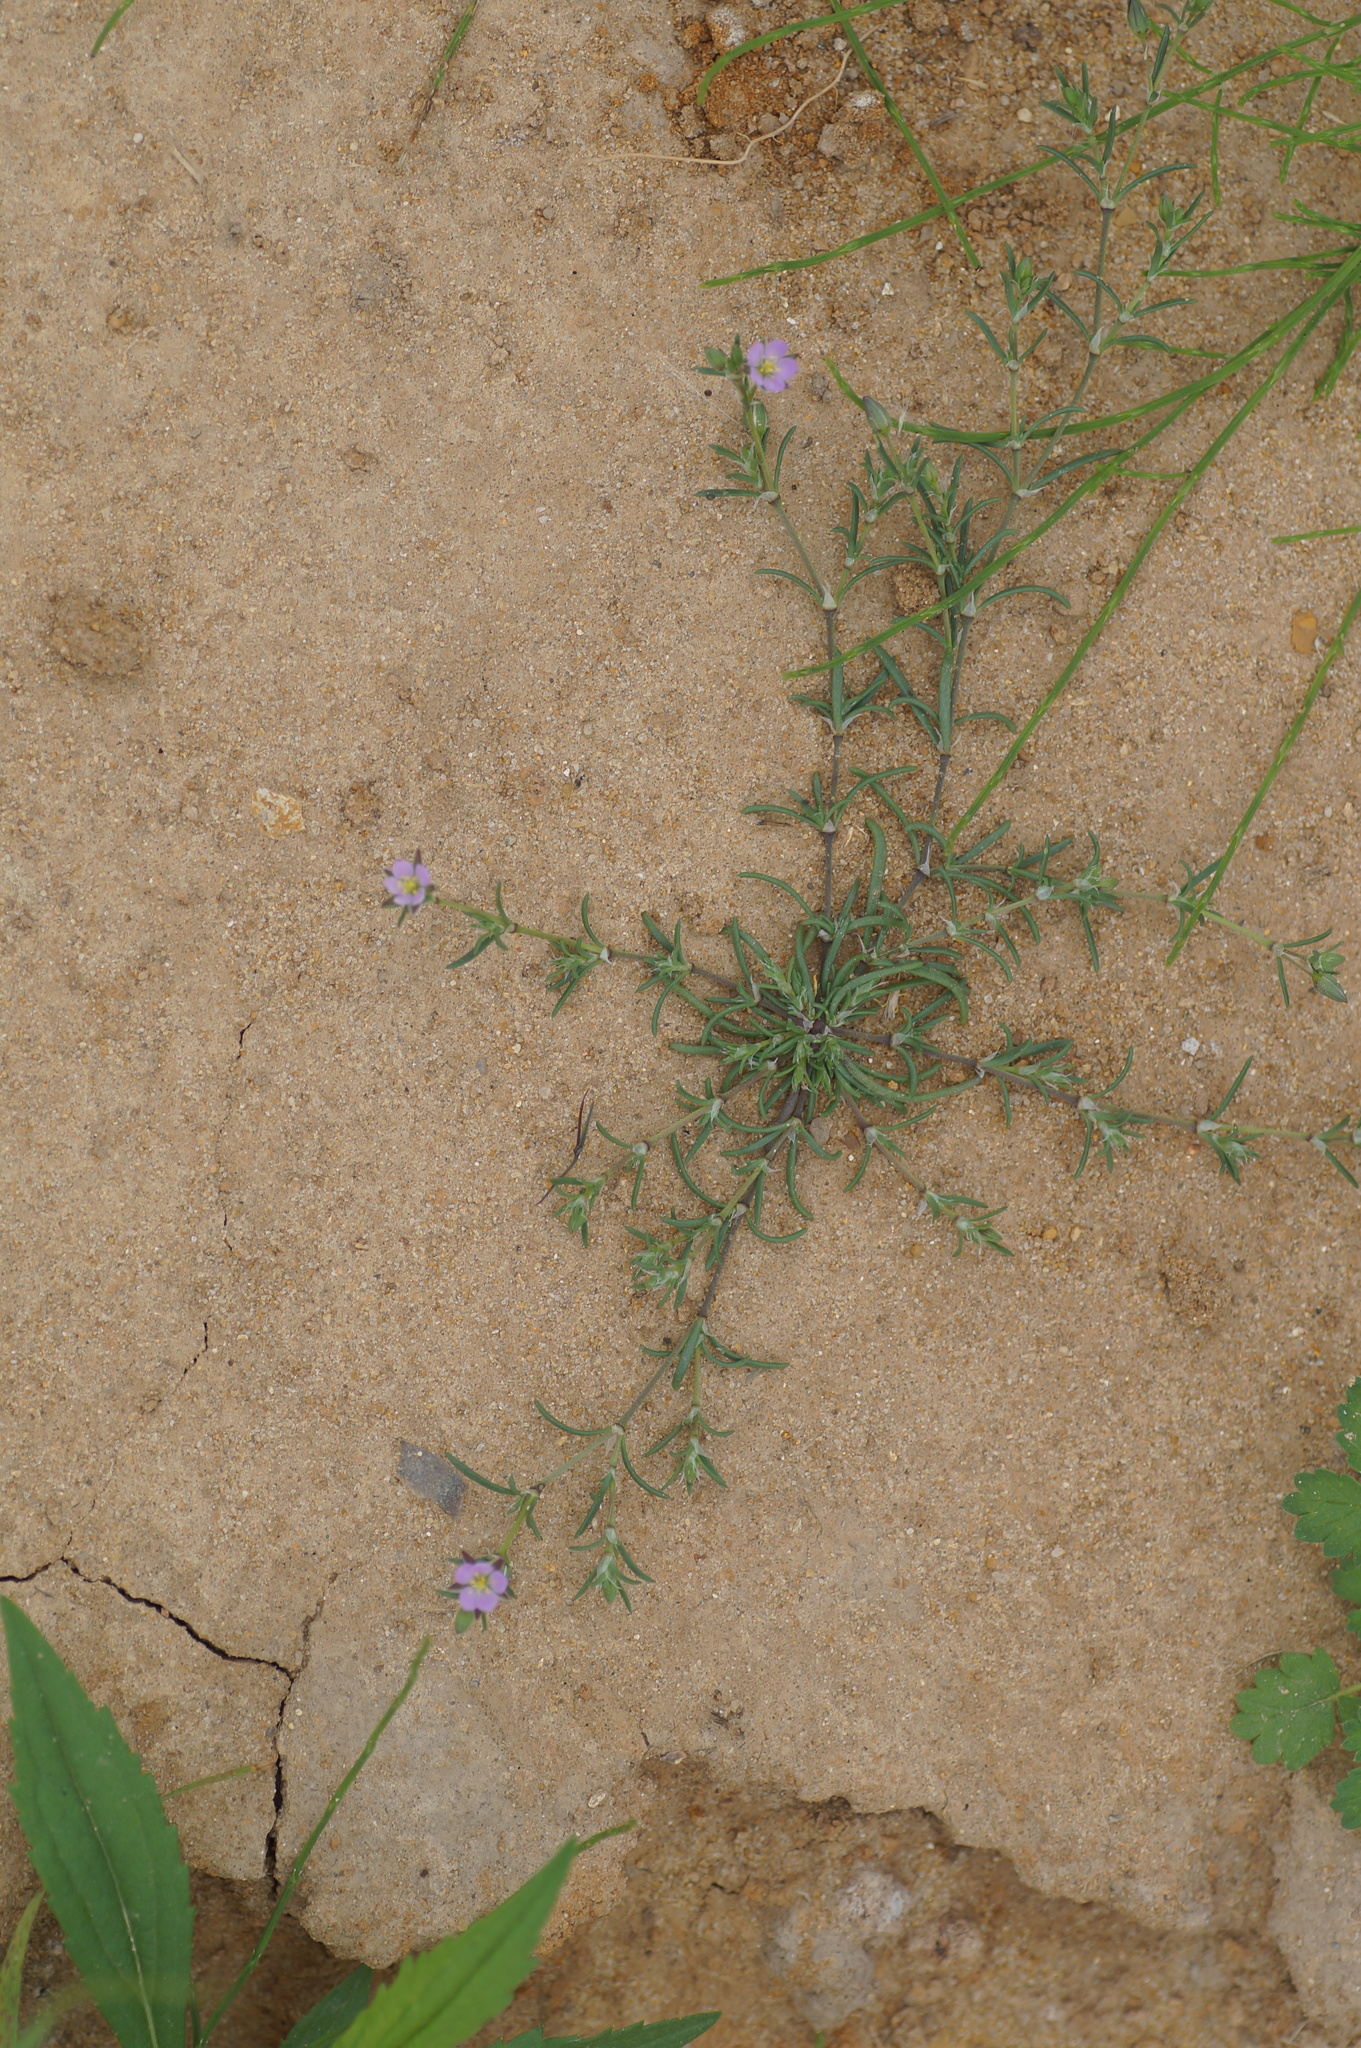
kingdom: Plantae
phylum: Tracheophyta
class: Magnoliopsida
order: Caryophyllales
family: Caryophyllaceae
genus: Spergularia
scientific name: Spergularia rubra
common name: Red sand-spurrey
